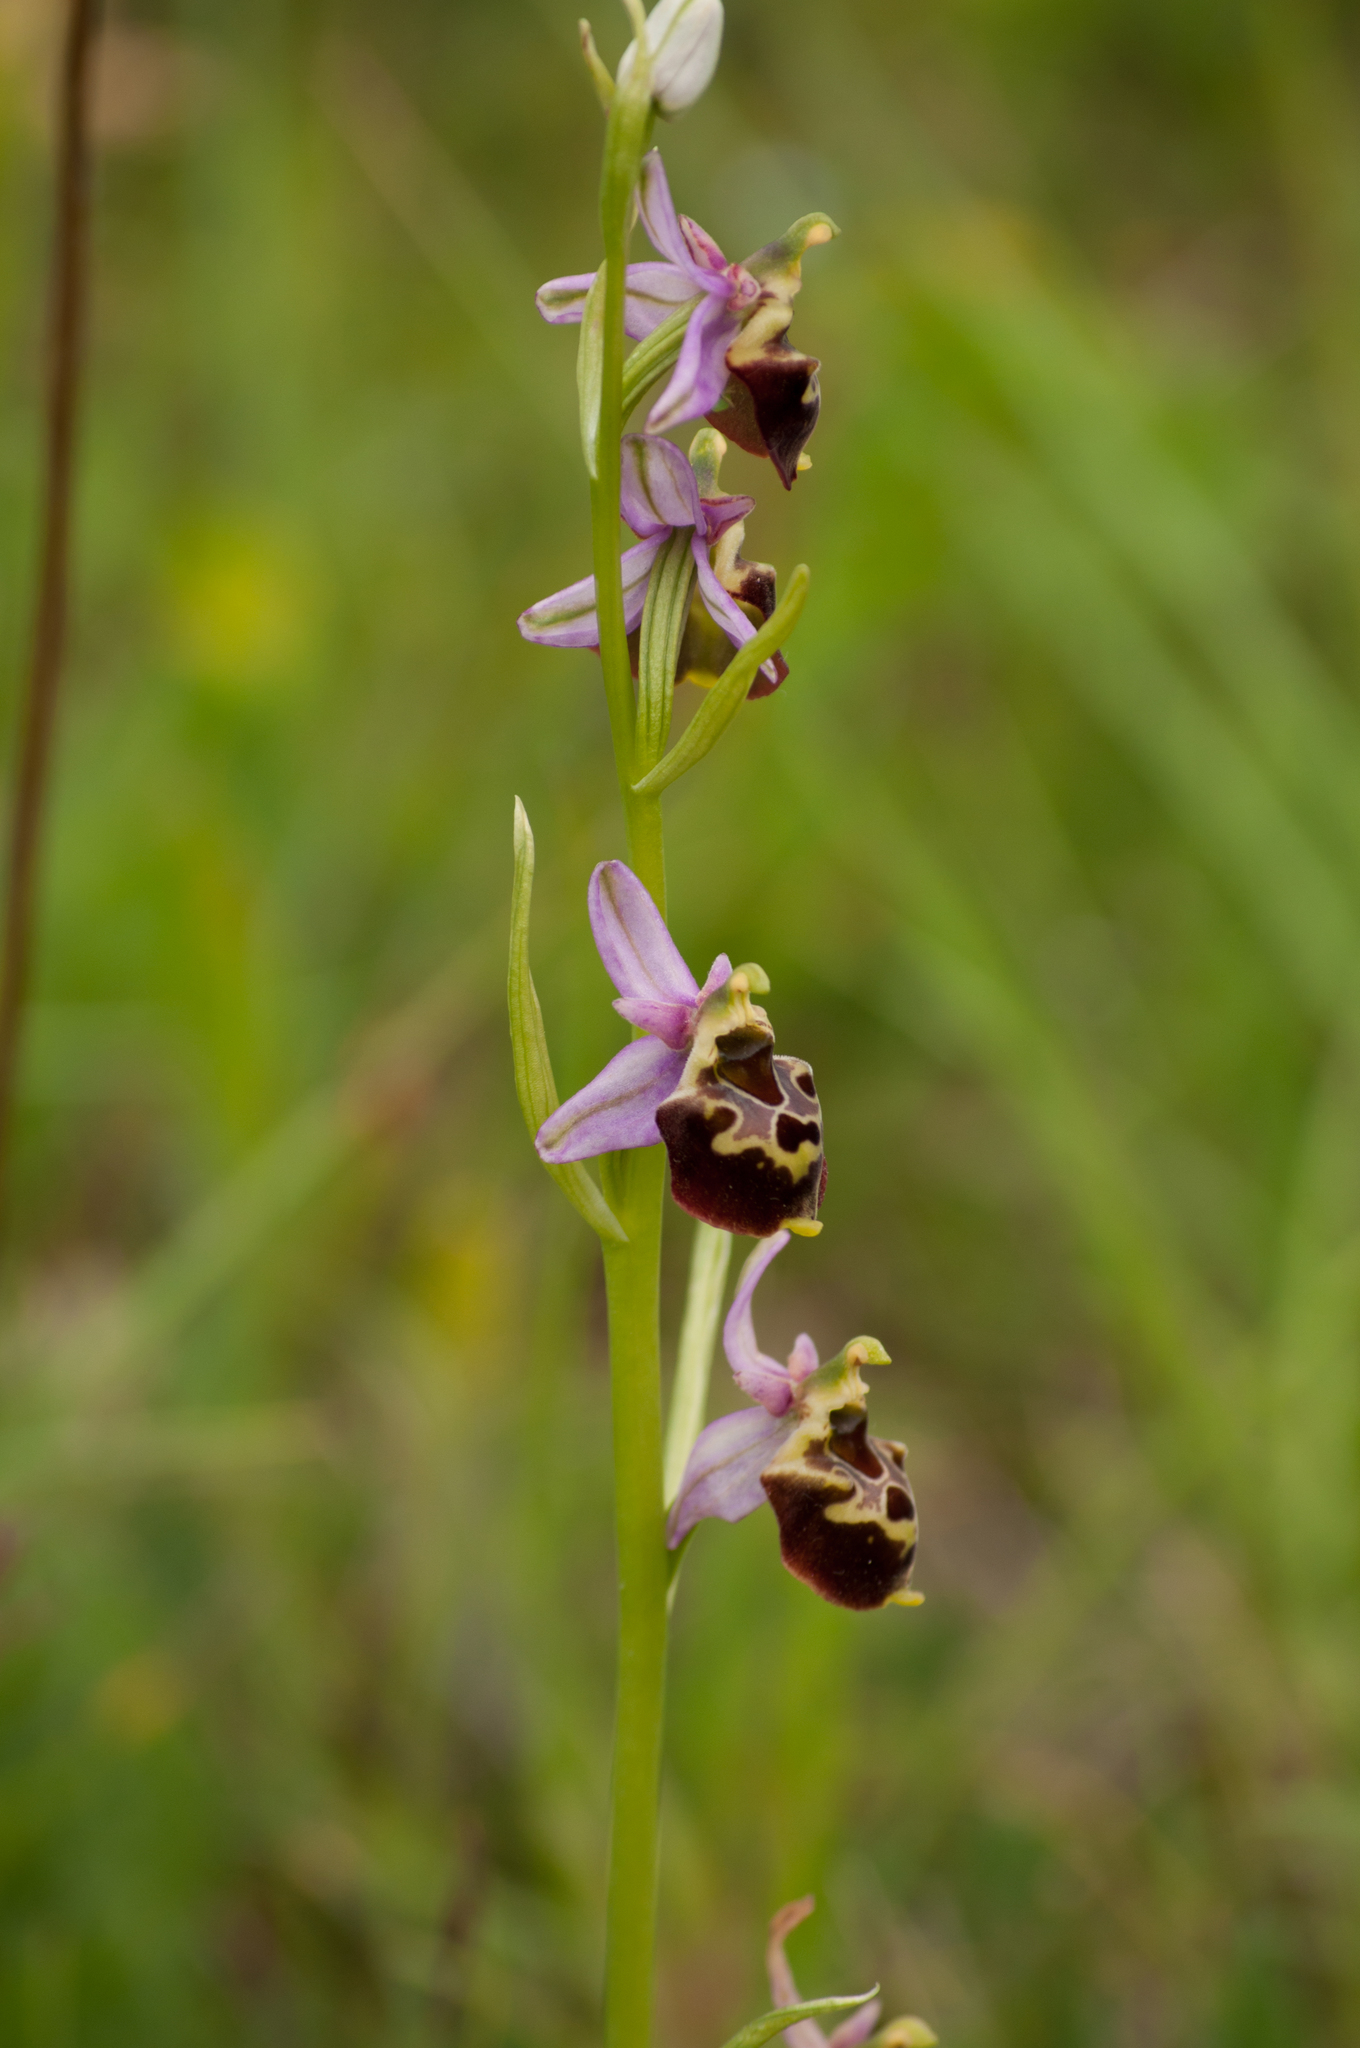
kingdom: Plantae
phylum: Tracheophyta
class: Liliopsida
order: Asparagales
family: Orchidaceae
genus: Ophrys
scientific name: Ophrys holosericea
